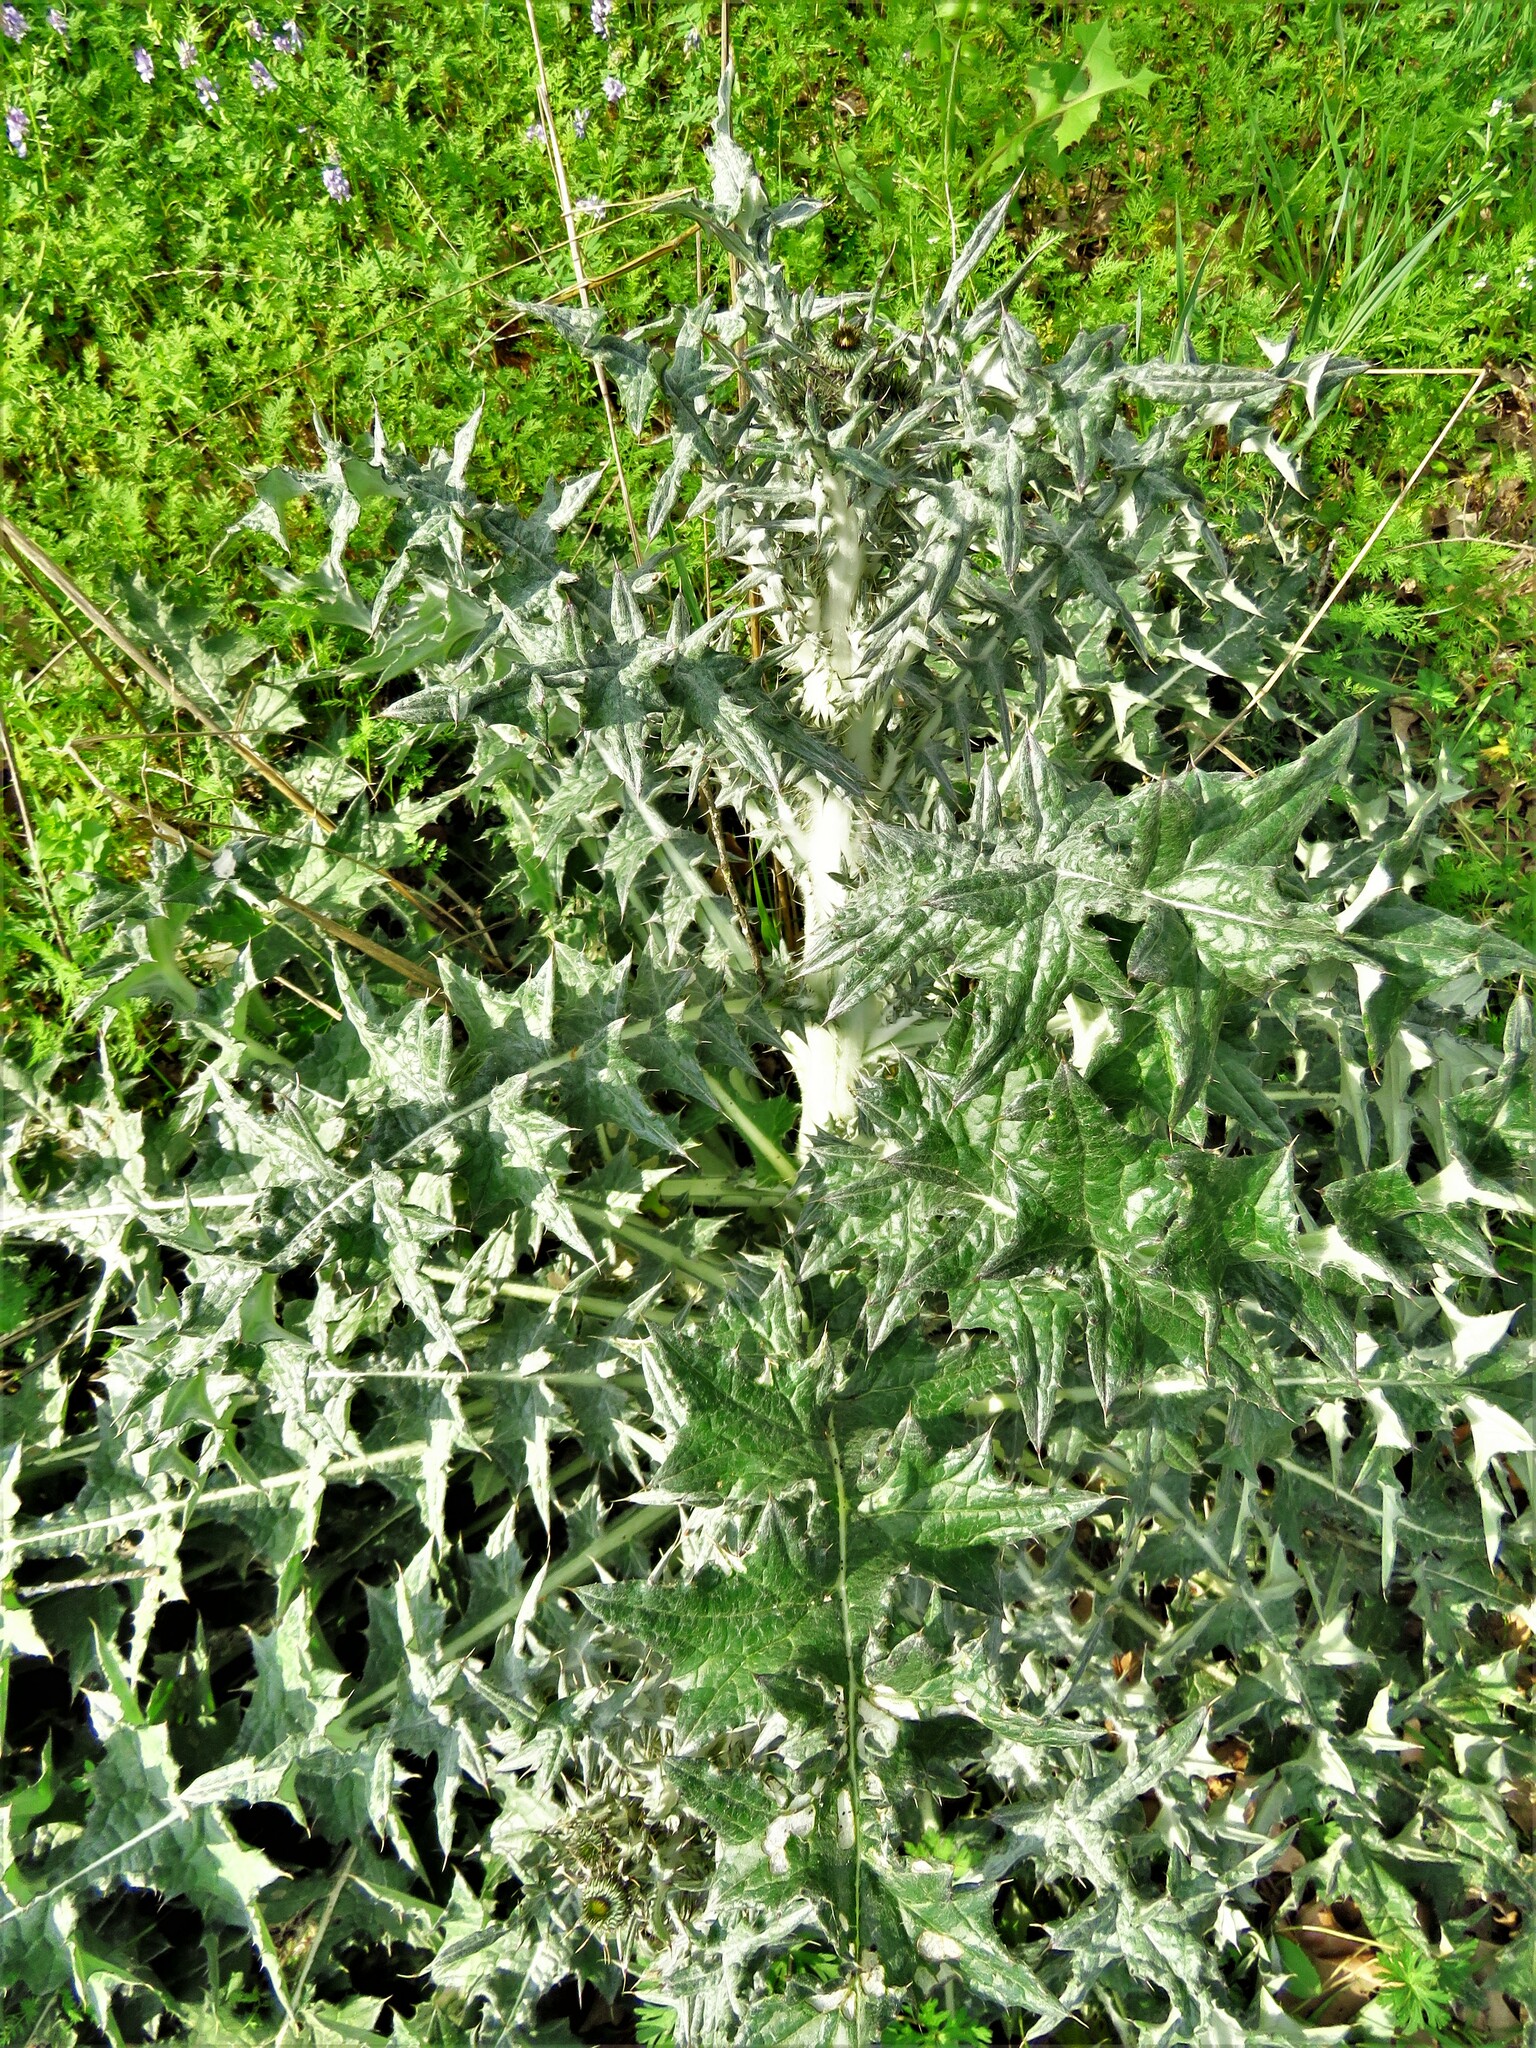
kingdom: Plantae
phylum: Tracheophyta
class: Magnoliopsida
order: Asterales
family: Asteraceae
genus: Cirsium
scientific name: Cirsium texanum
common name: Texas purple thistle
